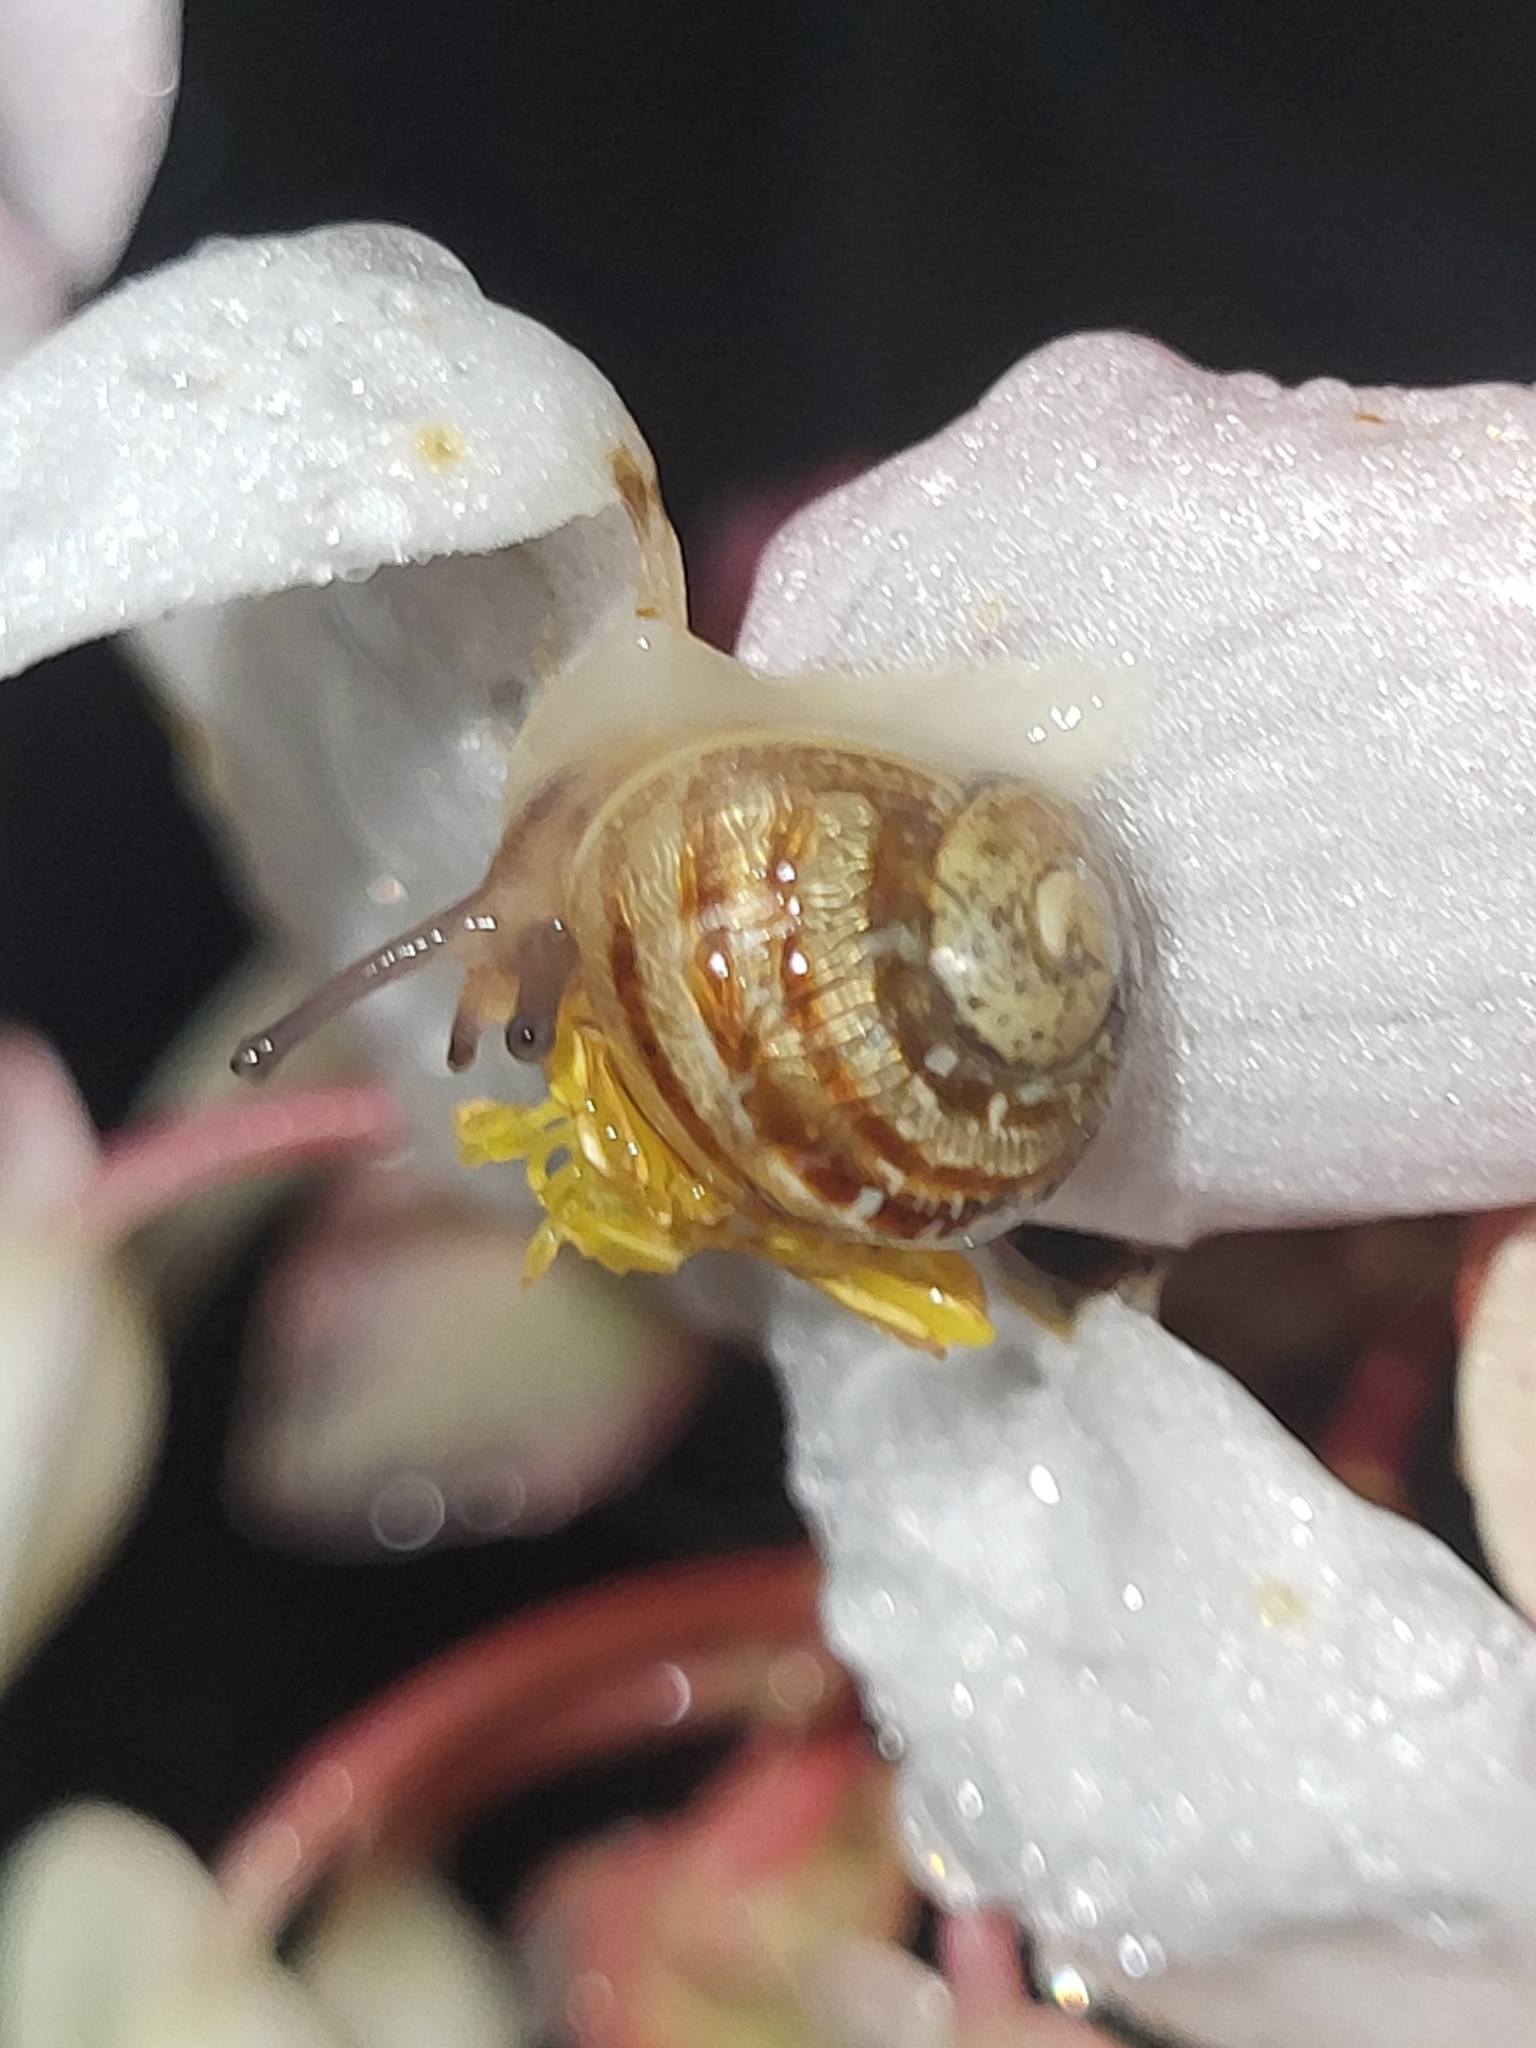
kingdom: Animalia
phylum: Mollusca
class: Gastropoda
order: Stylommatophora
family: Helicidae
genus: Cornu
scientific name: Cornu aspersum
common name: Brown garden snail
